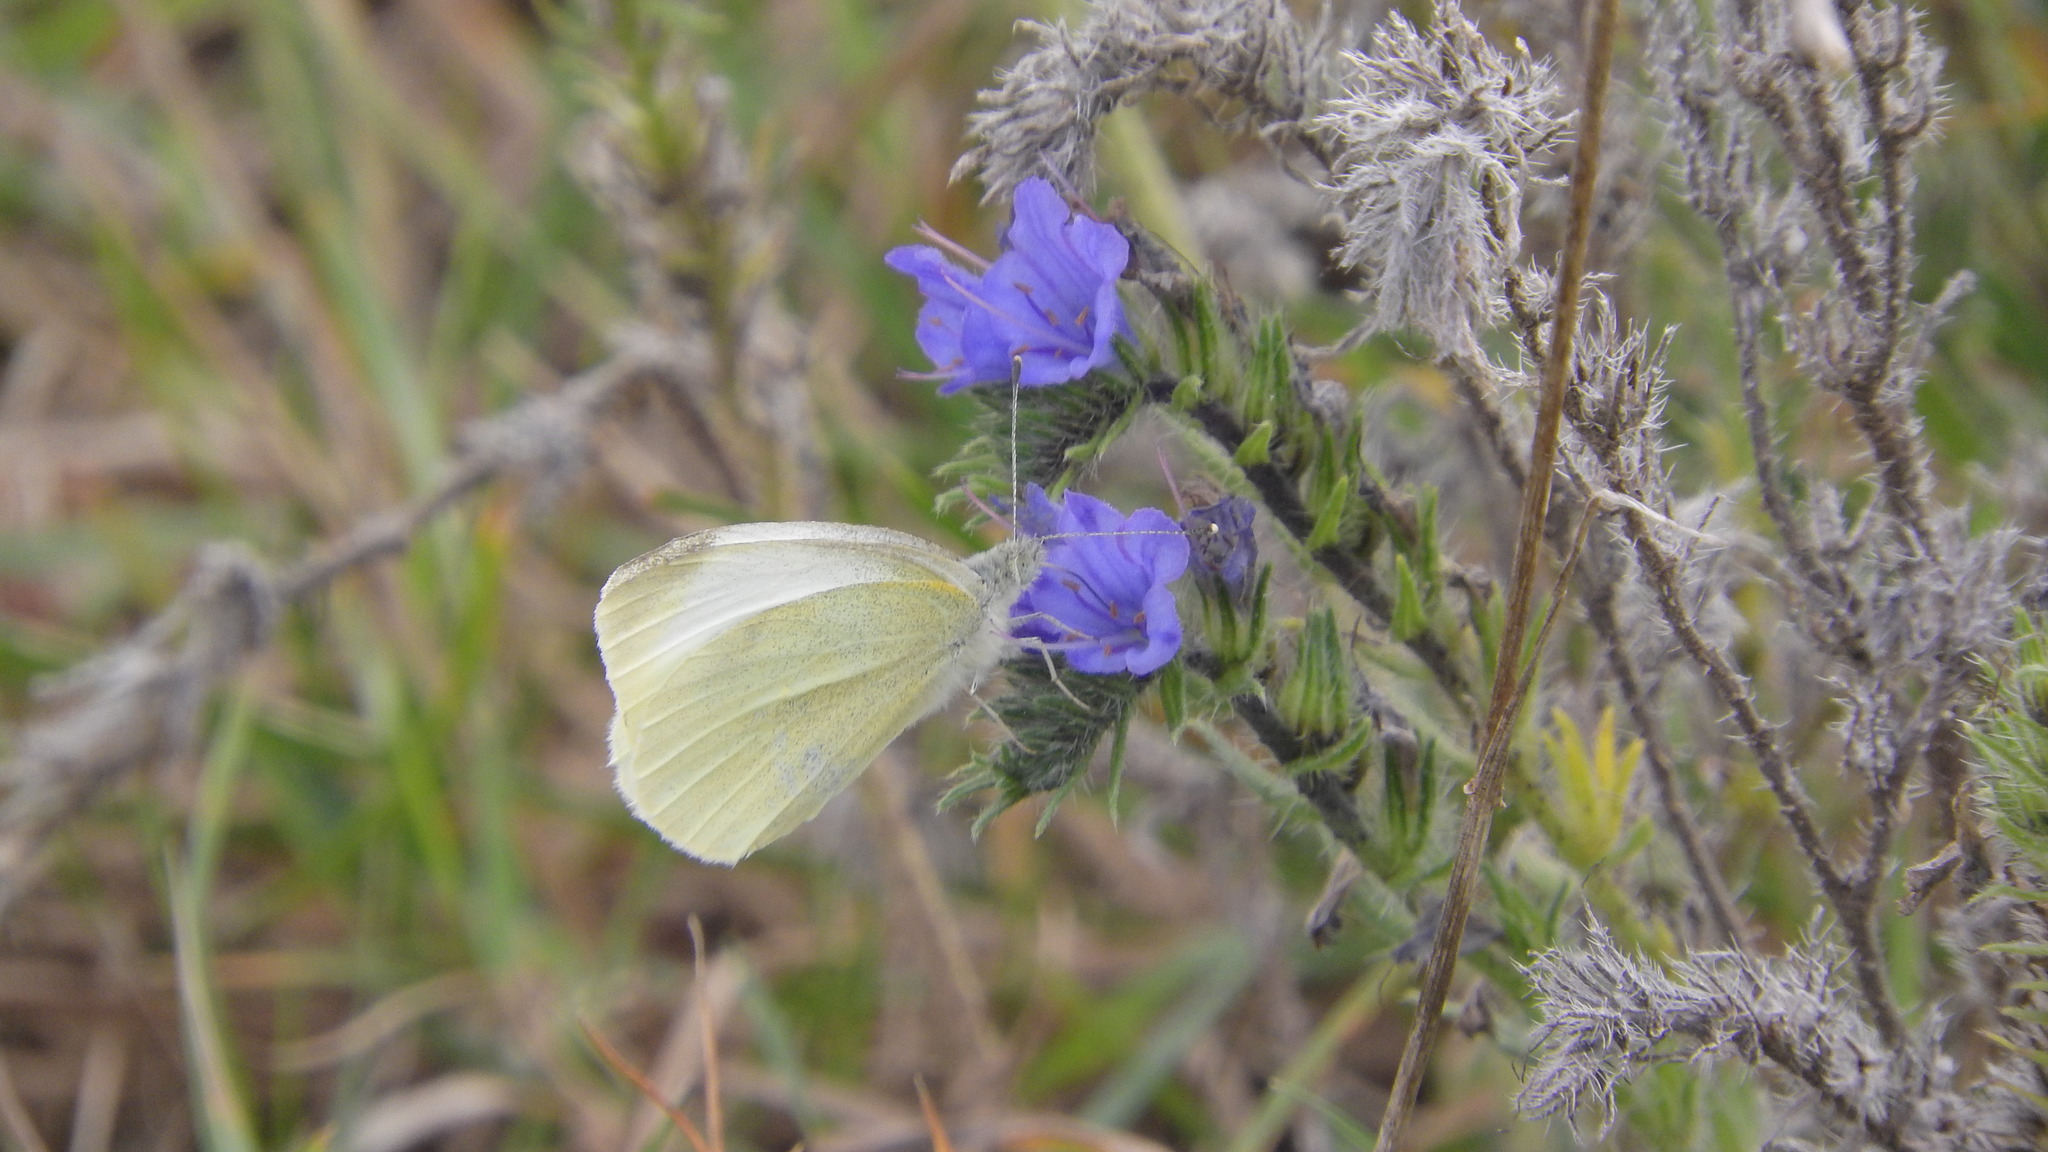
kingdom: Animalia
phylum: Arthropoda
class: Insecta
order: Lepidoptera
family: Pieridae
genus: Pieris
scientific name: Pieris rapae
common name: Small white
